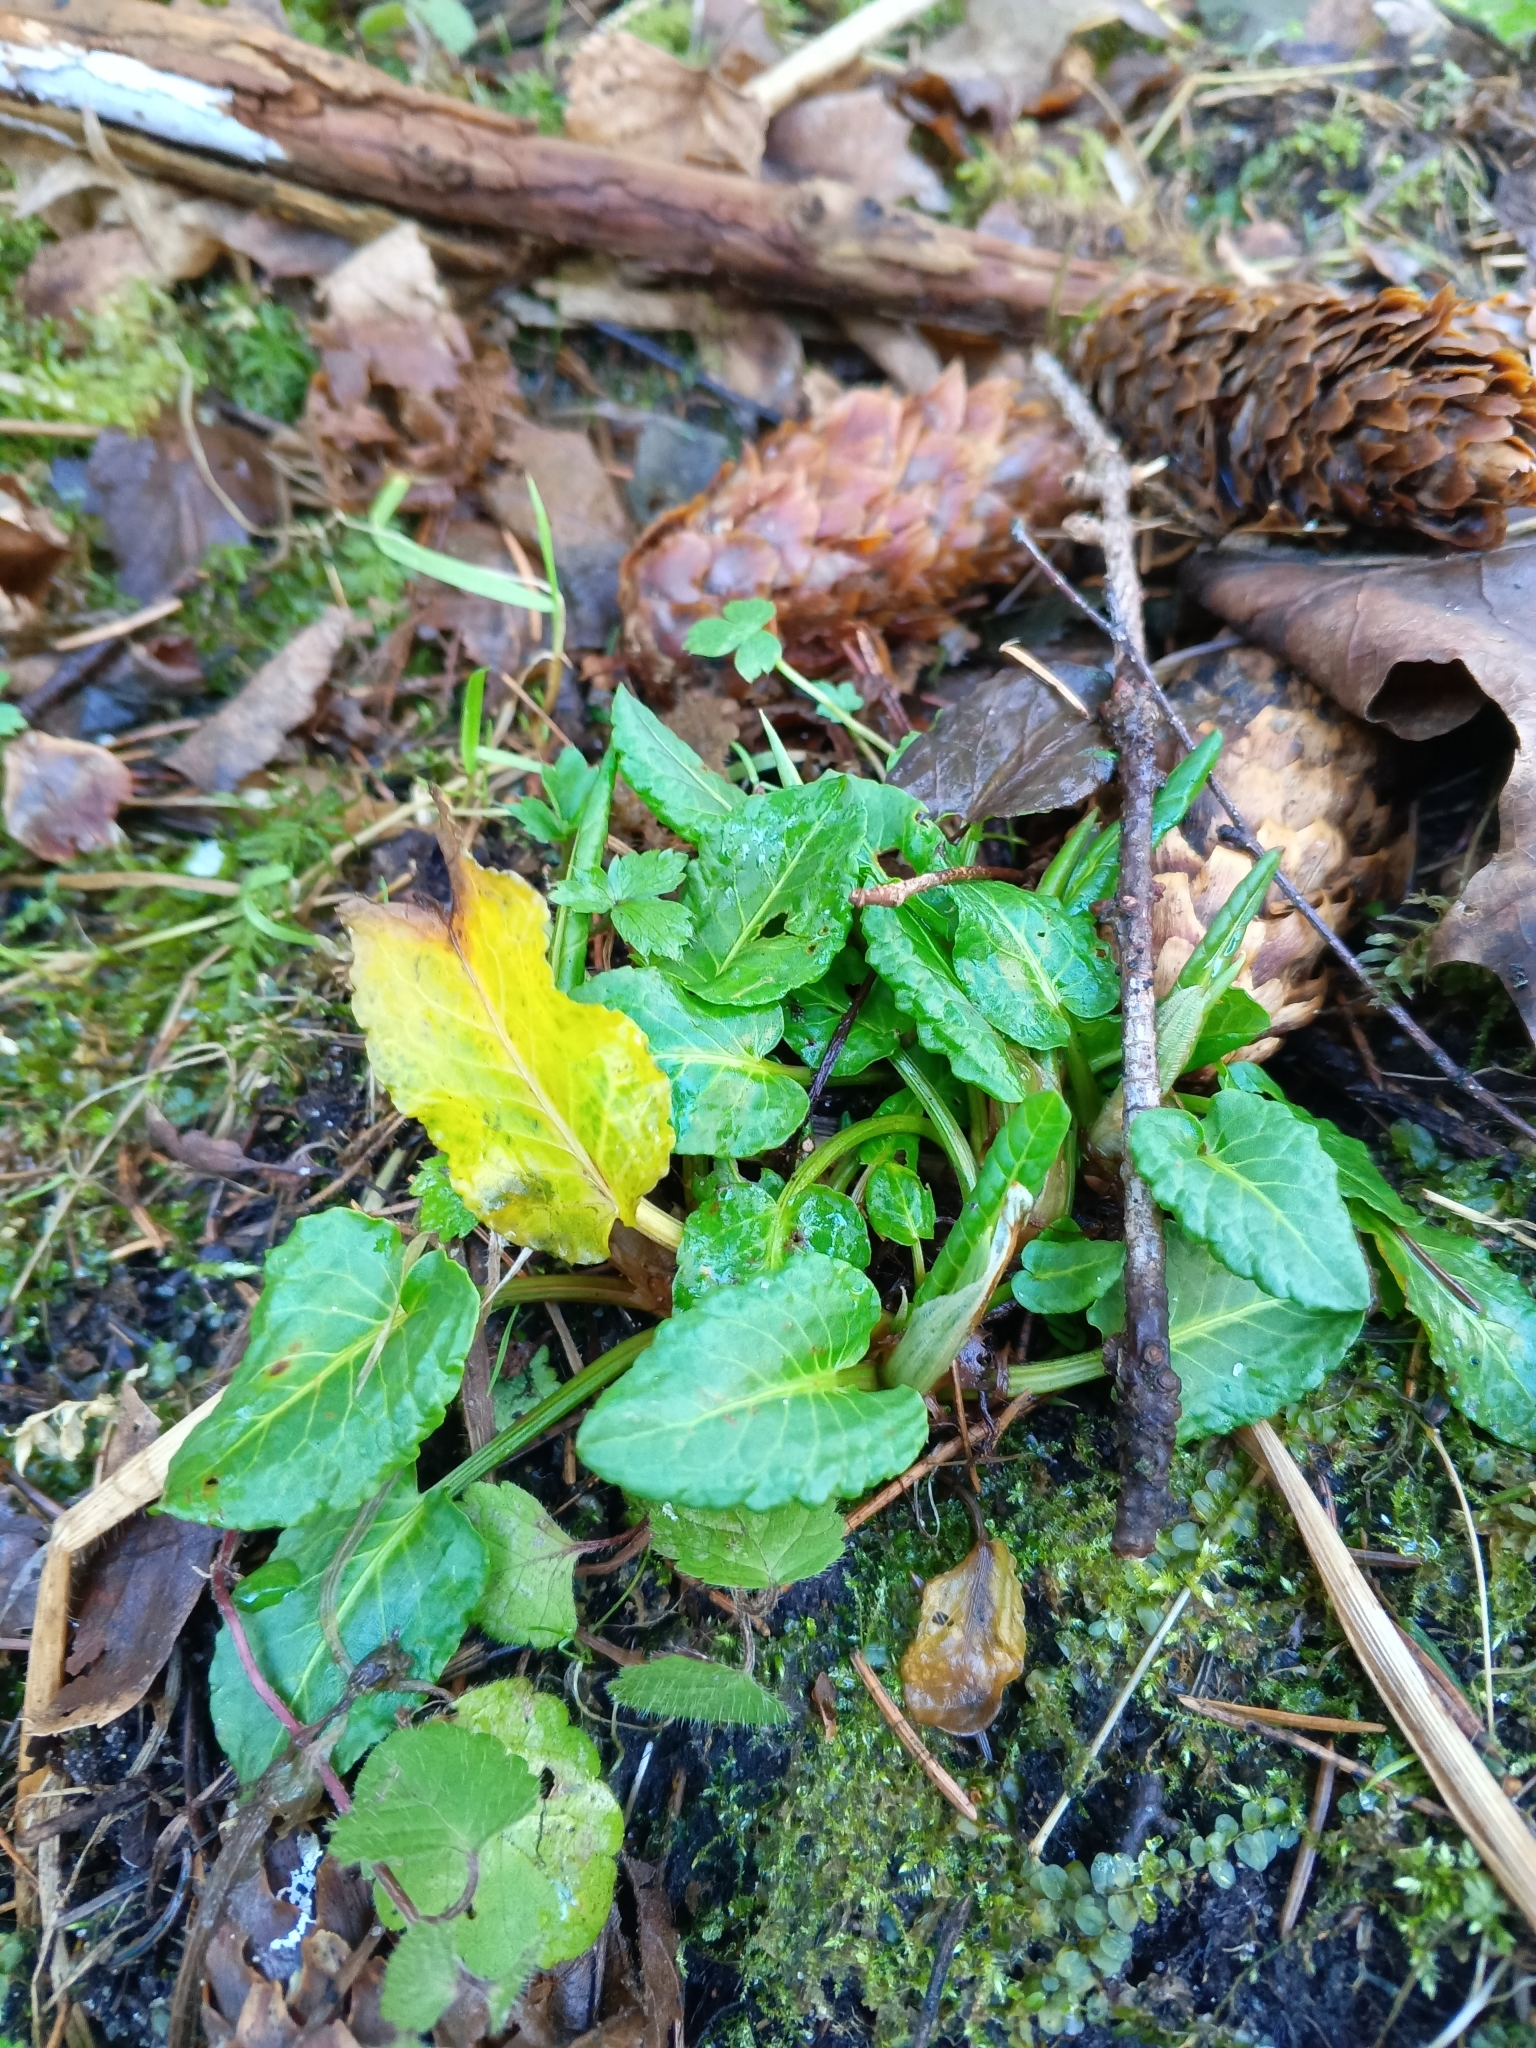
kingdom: Plantae
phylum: Tracheophyta
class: Magnoliopsida
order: Caryophyllales
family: Polygonaceae
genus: Rumex
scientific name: Rumex obtusifolius
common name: Bitter dock
